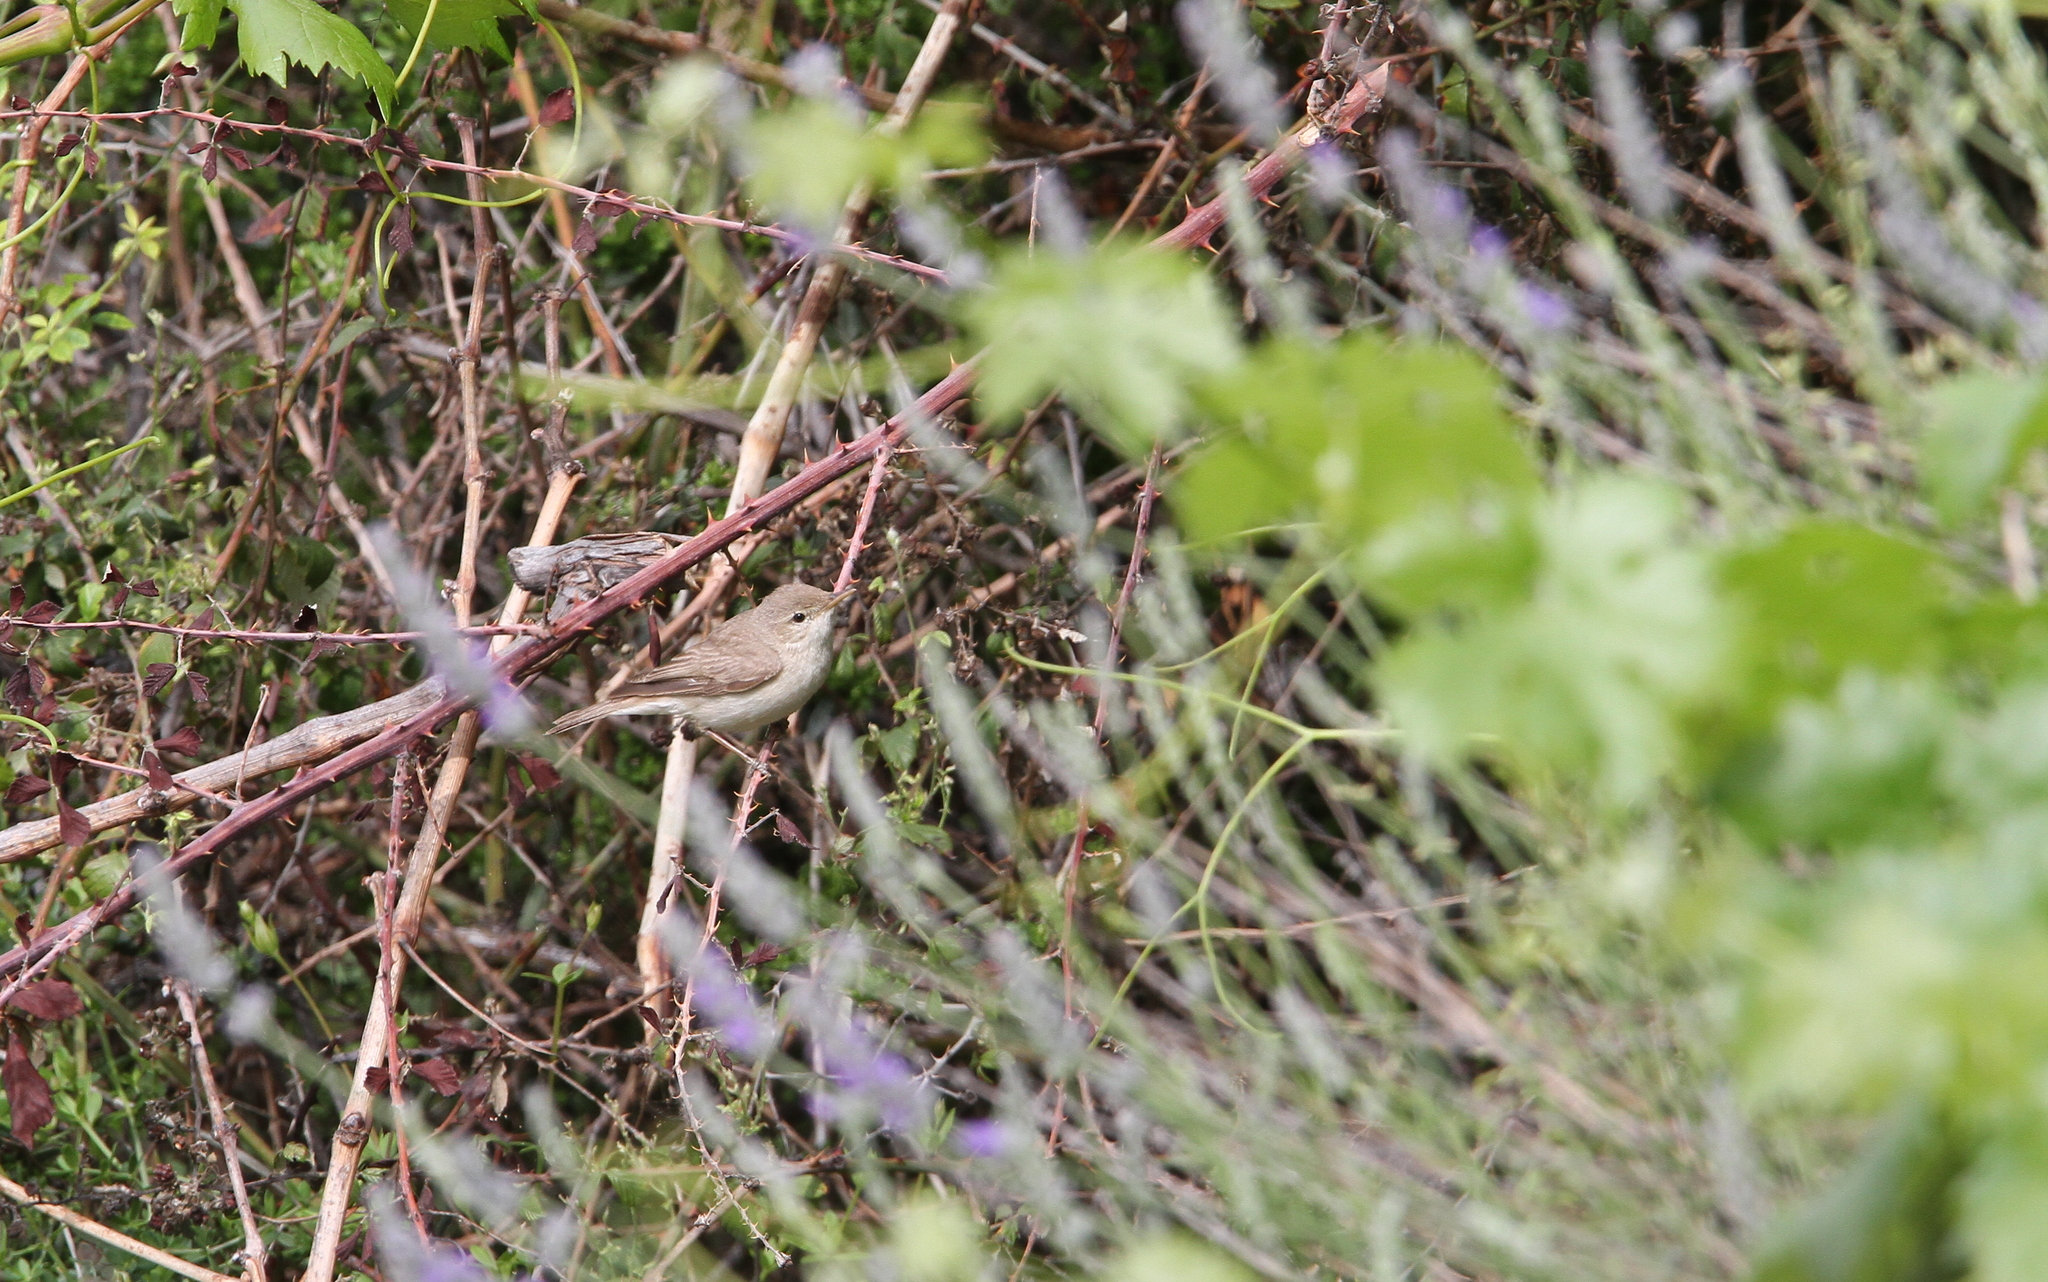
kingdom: Animalia
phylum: Chordata
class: Aves
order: Passeriformes
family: Acrocephalidae
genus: Iduna
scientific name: Iduna pallida
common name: Eastern olivaceous warbler
